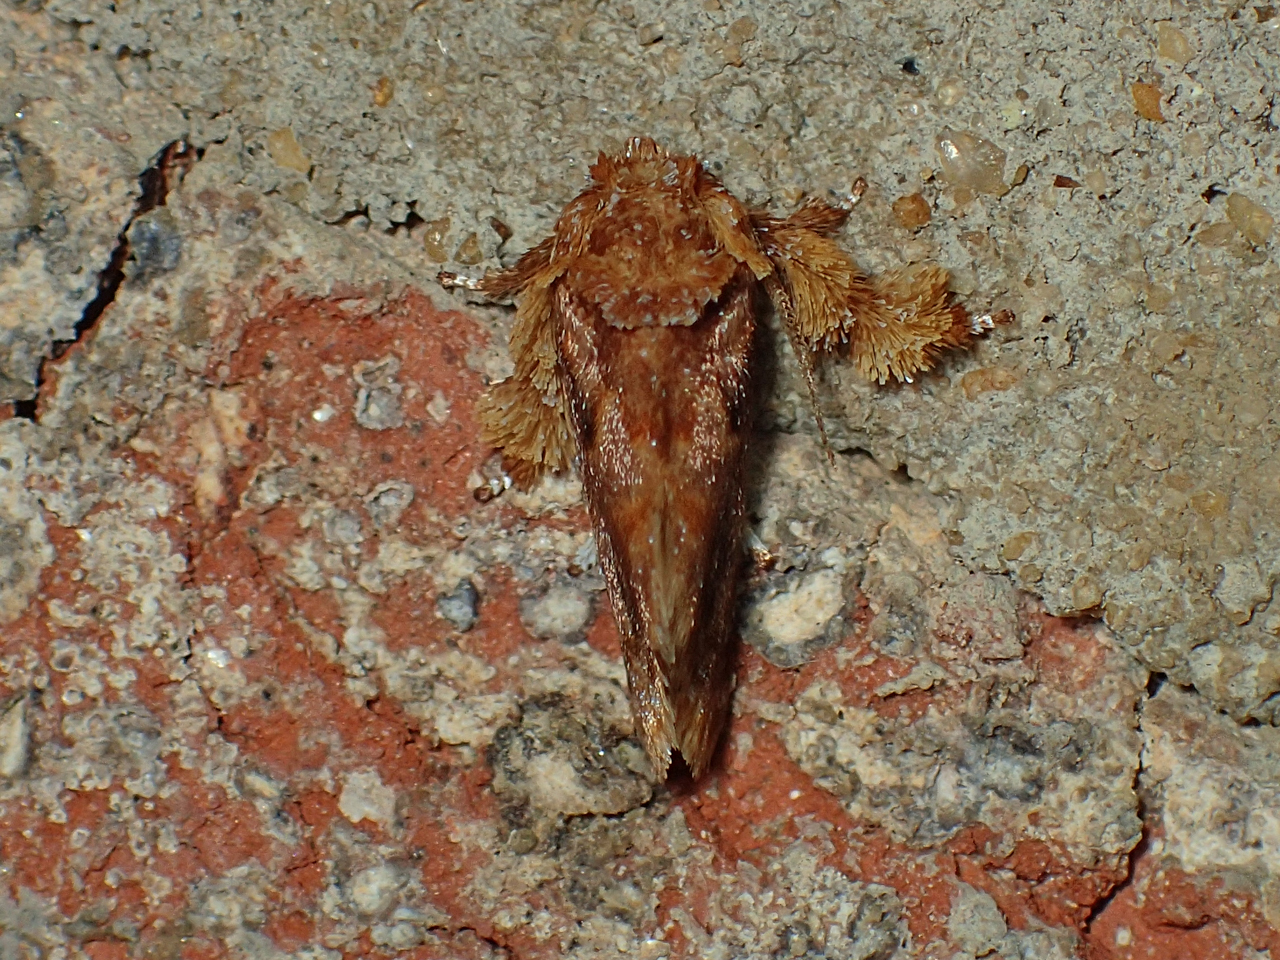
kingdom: Animalia
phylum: Arthropoda
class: Insecta
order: Lepidoptera
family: Limacodidae
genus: Isochaetes
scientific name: Isochaetes beutenmuelleri
